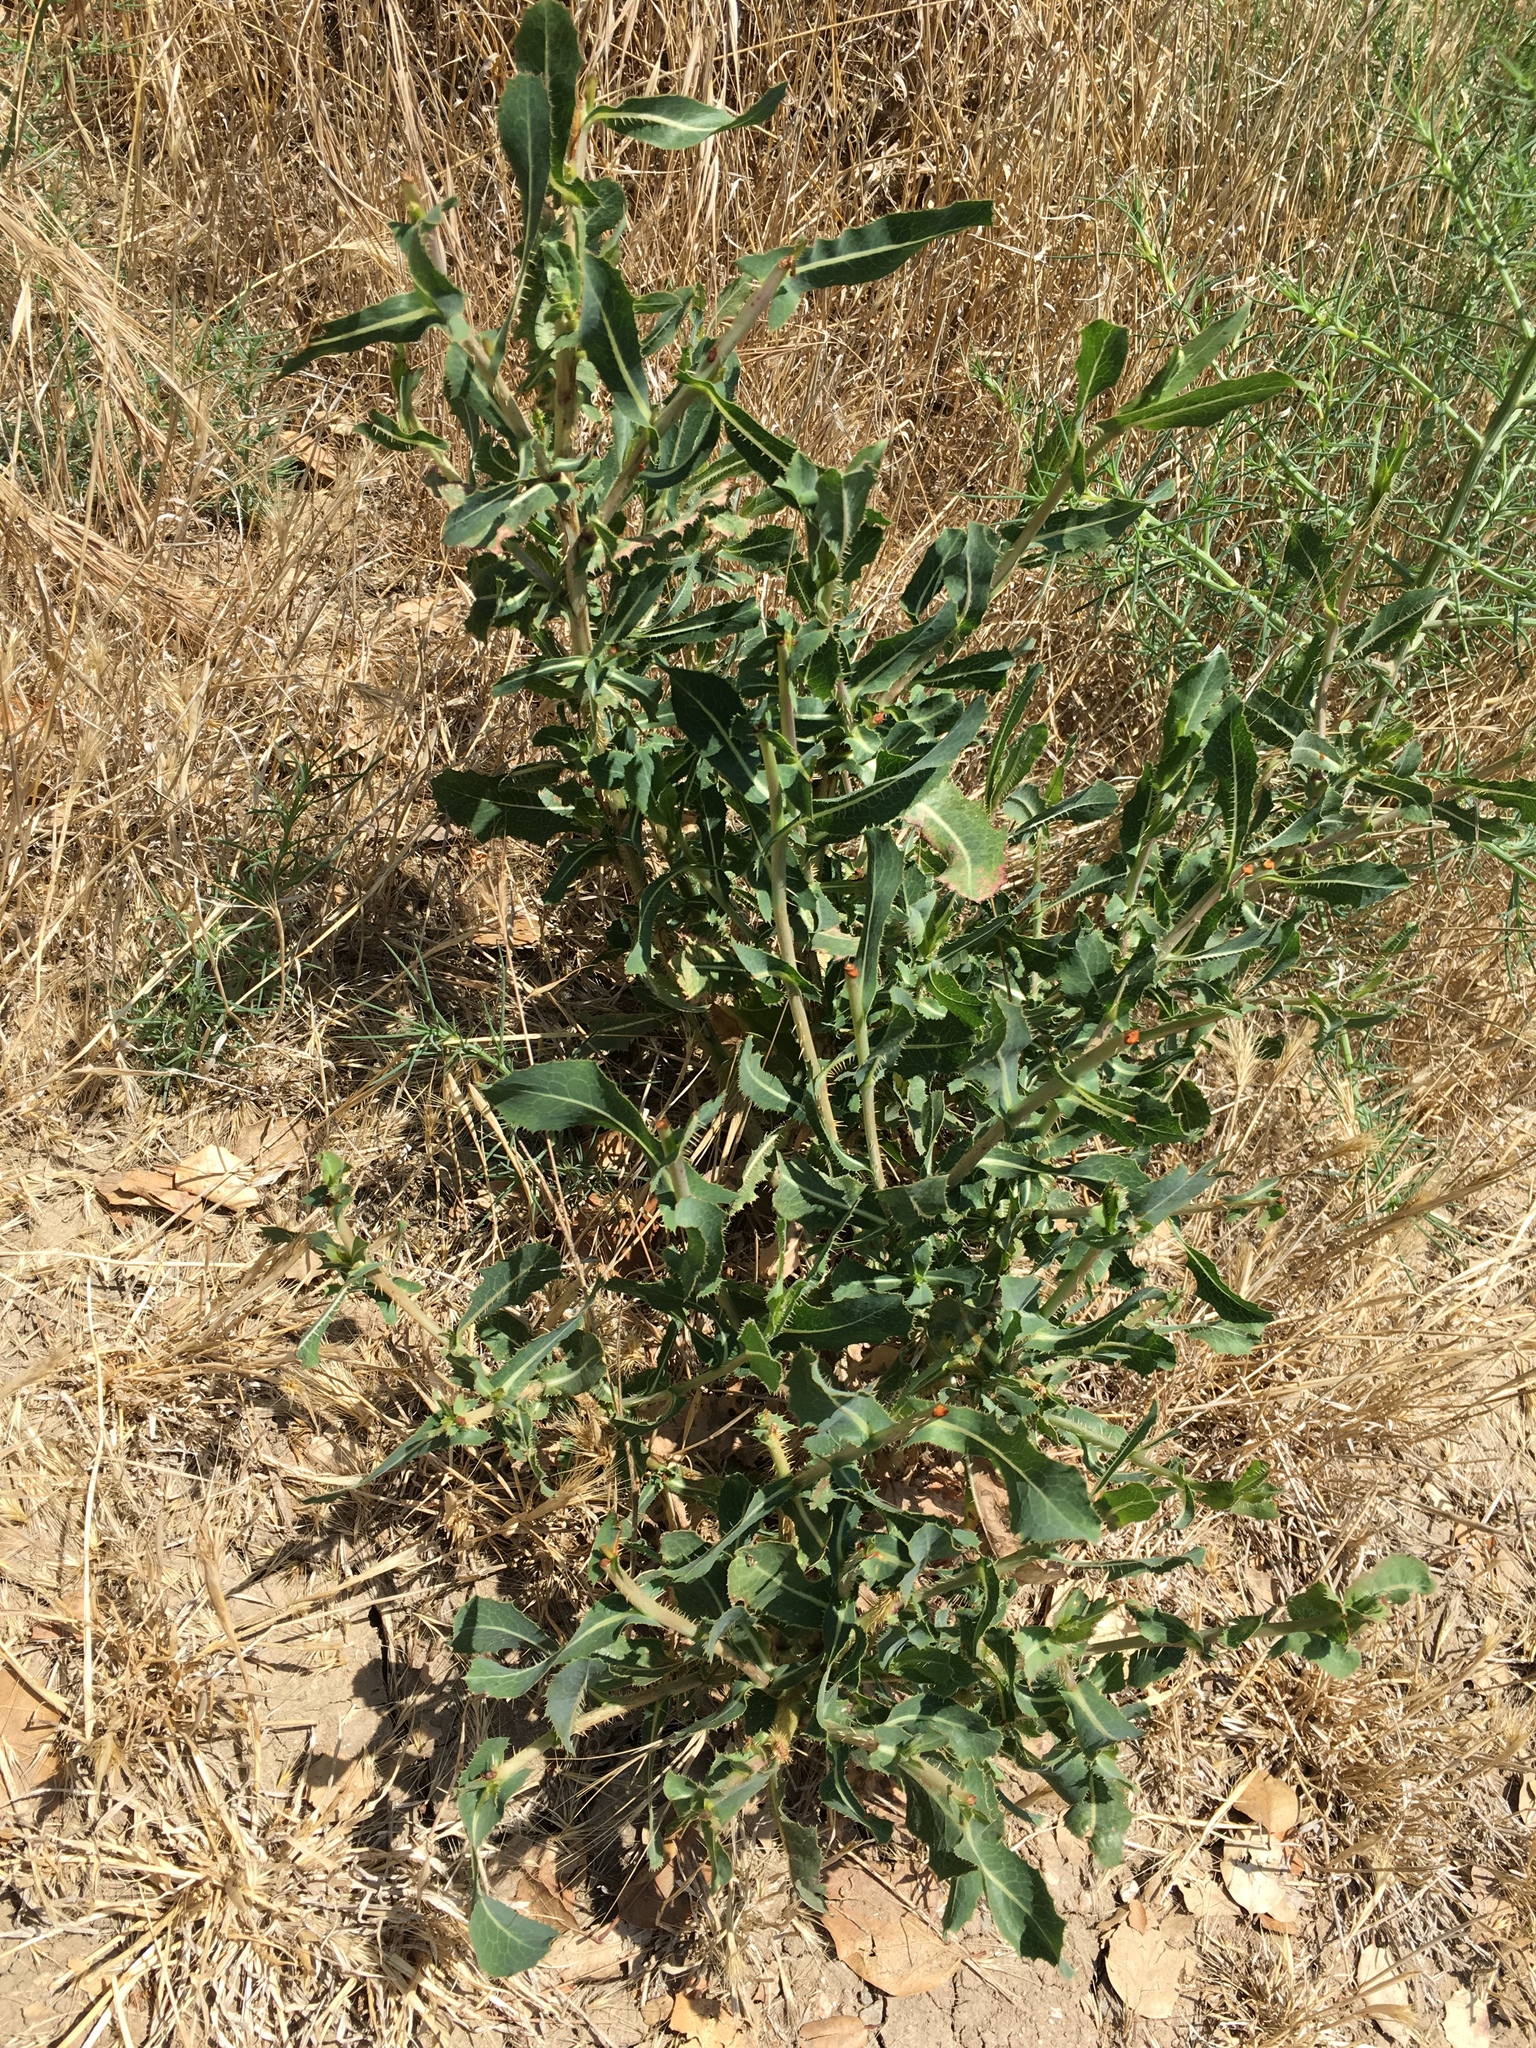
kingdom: Plantae
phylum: Tracheophyta
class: Magnoliopsida
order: Asterales
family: Asteraceae
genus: Lactuca
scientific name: Lactuca serriola
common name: Prickly lettuce
